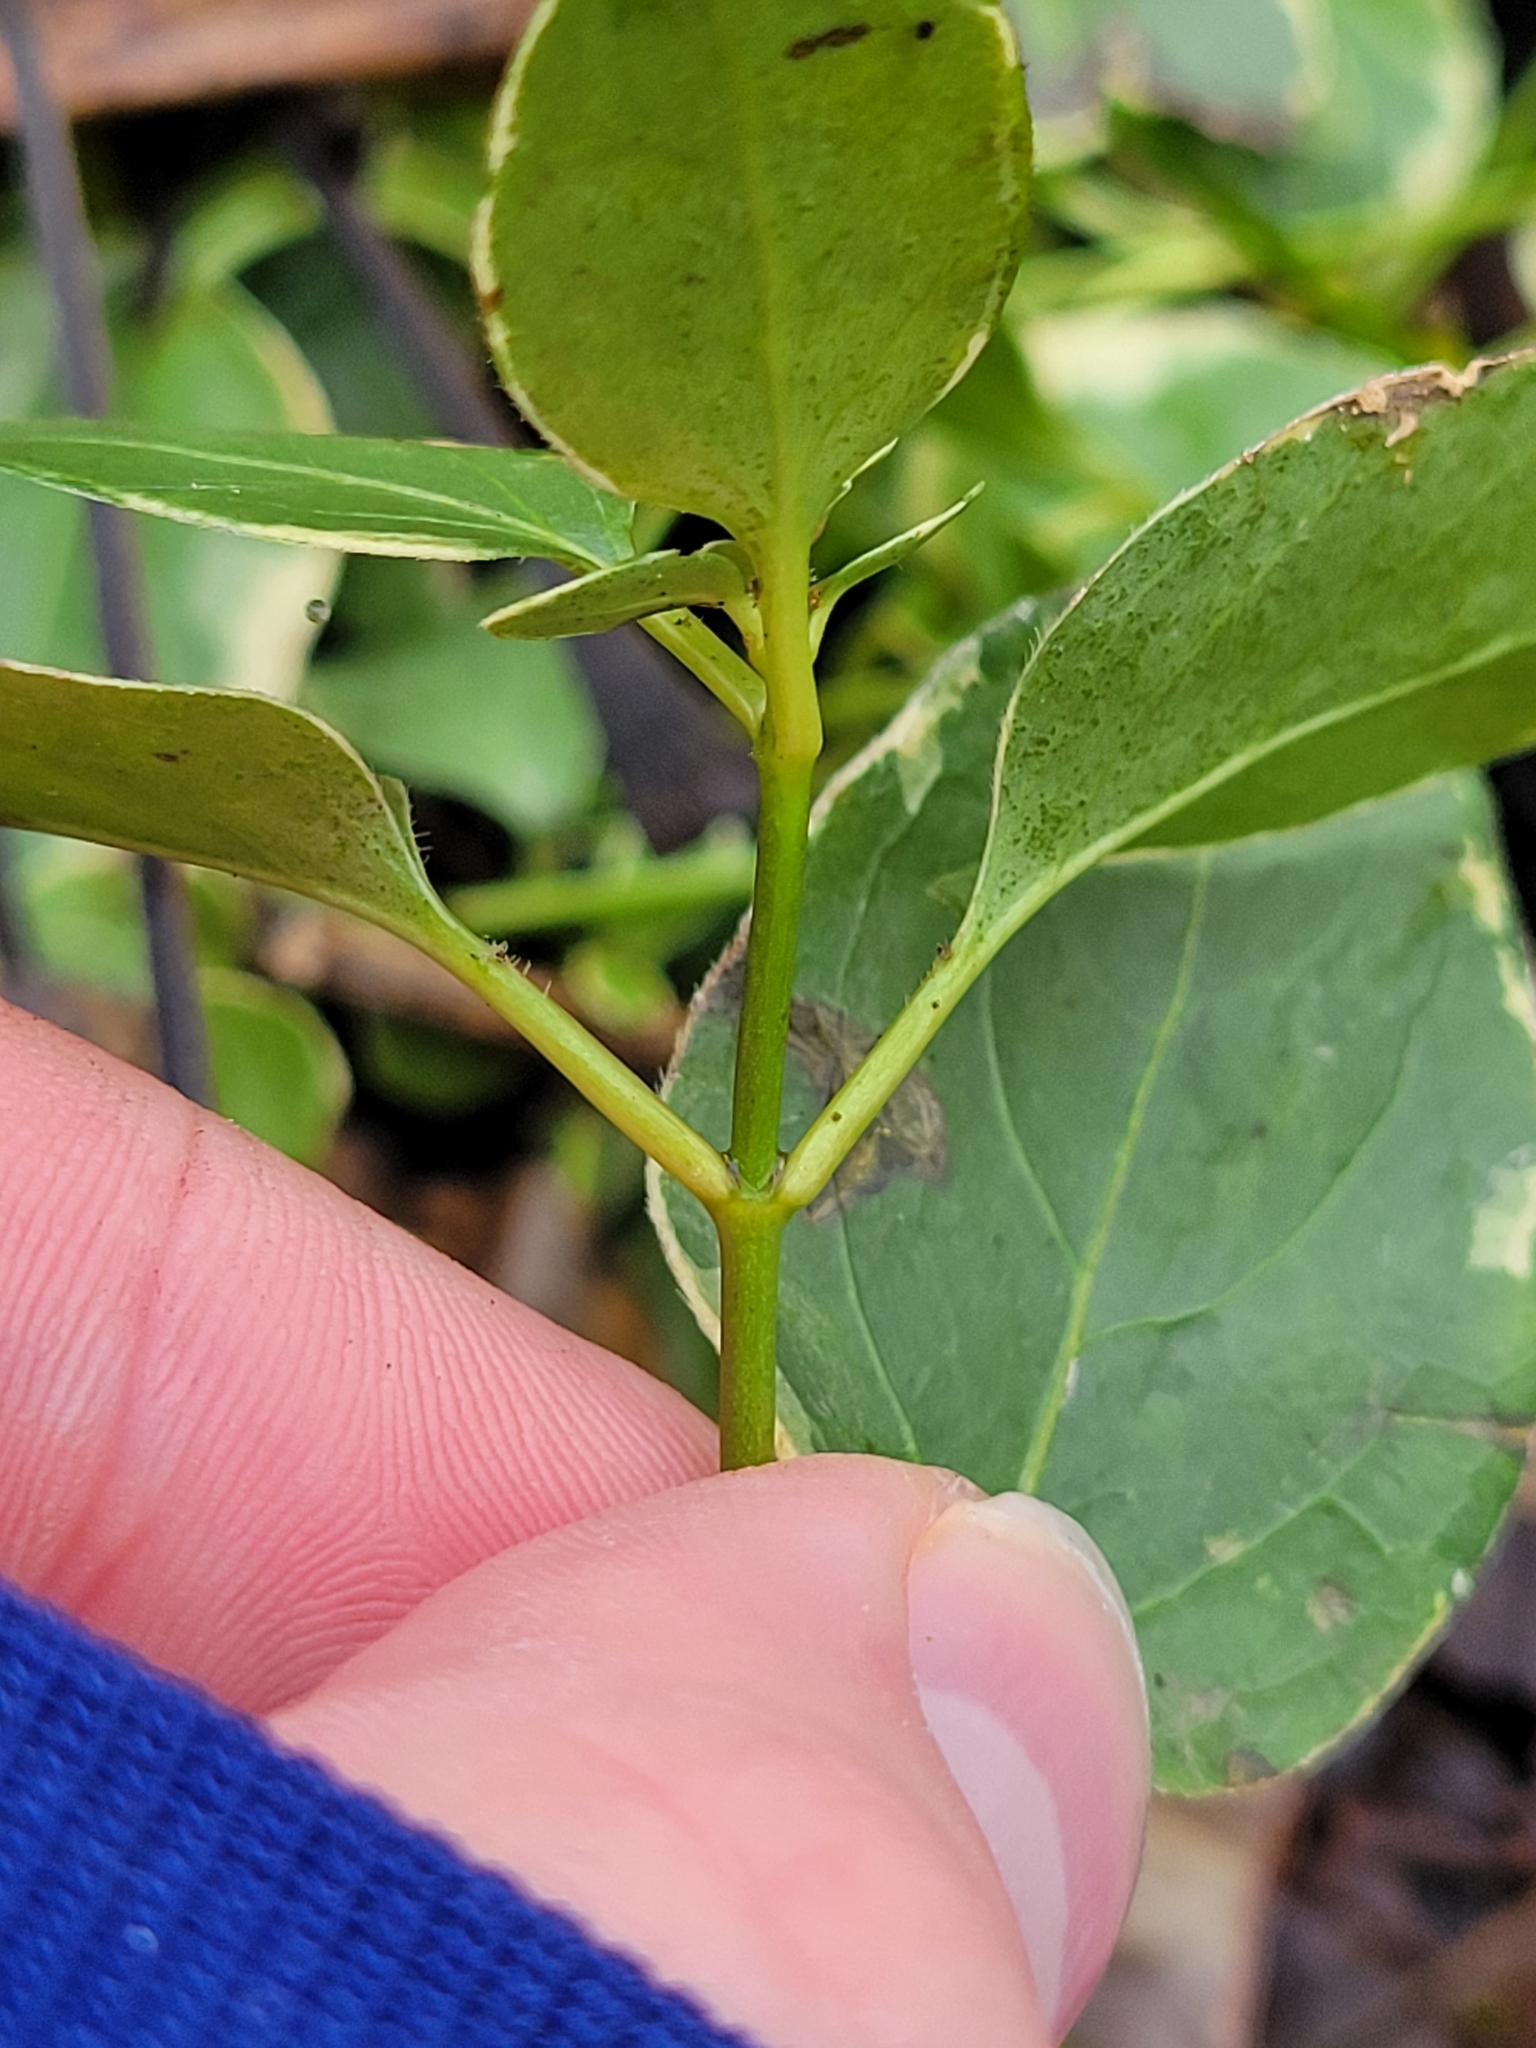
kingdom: Plantae
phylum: Tracheophyta
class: Magnoliopsida
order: Gentianales
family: Apocynaceae
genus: Vinca
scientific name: Vinca major
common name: Greater periwinkle
